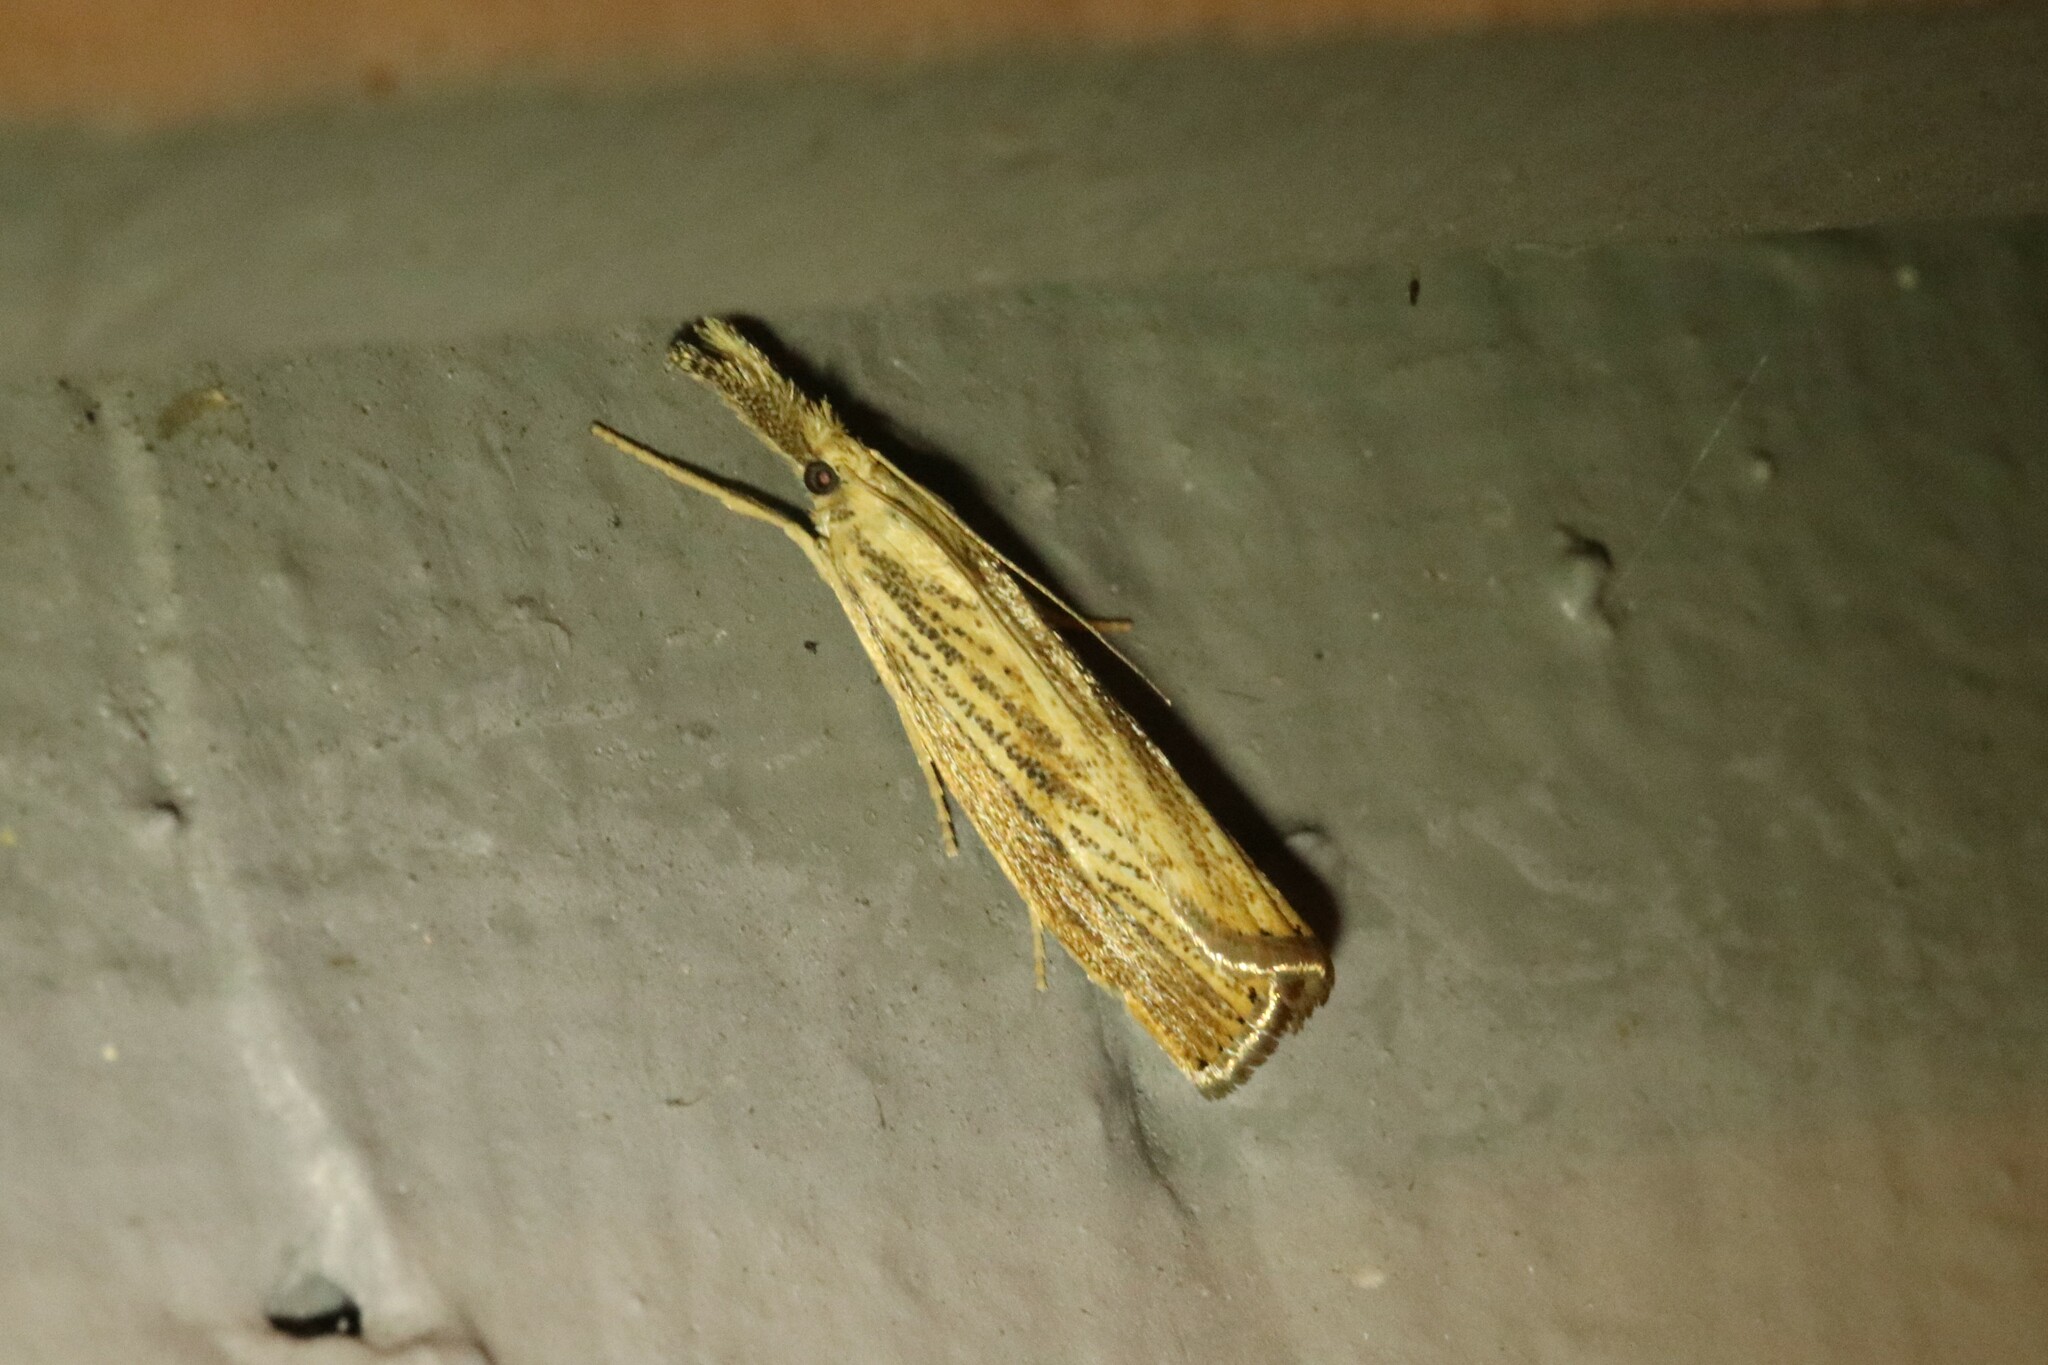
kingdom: Animalia
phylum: Arthropoda
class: Insecta
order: Lepidoptera
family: Crambidae
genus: Agriphila
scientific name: Agriphila ruricolellus
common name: Lesser vagabond sod webworm
